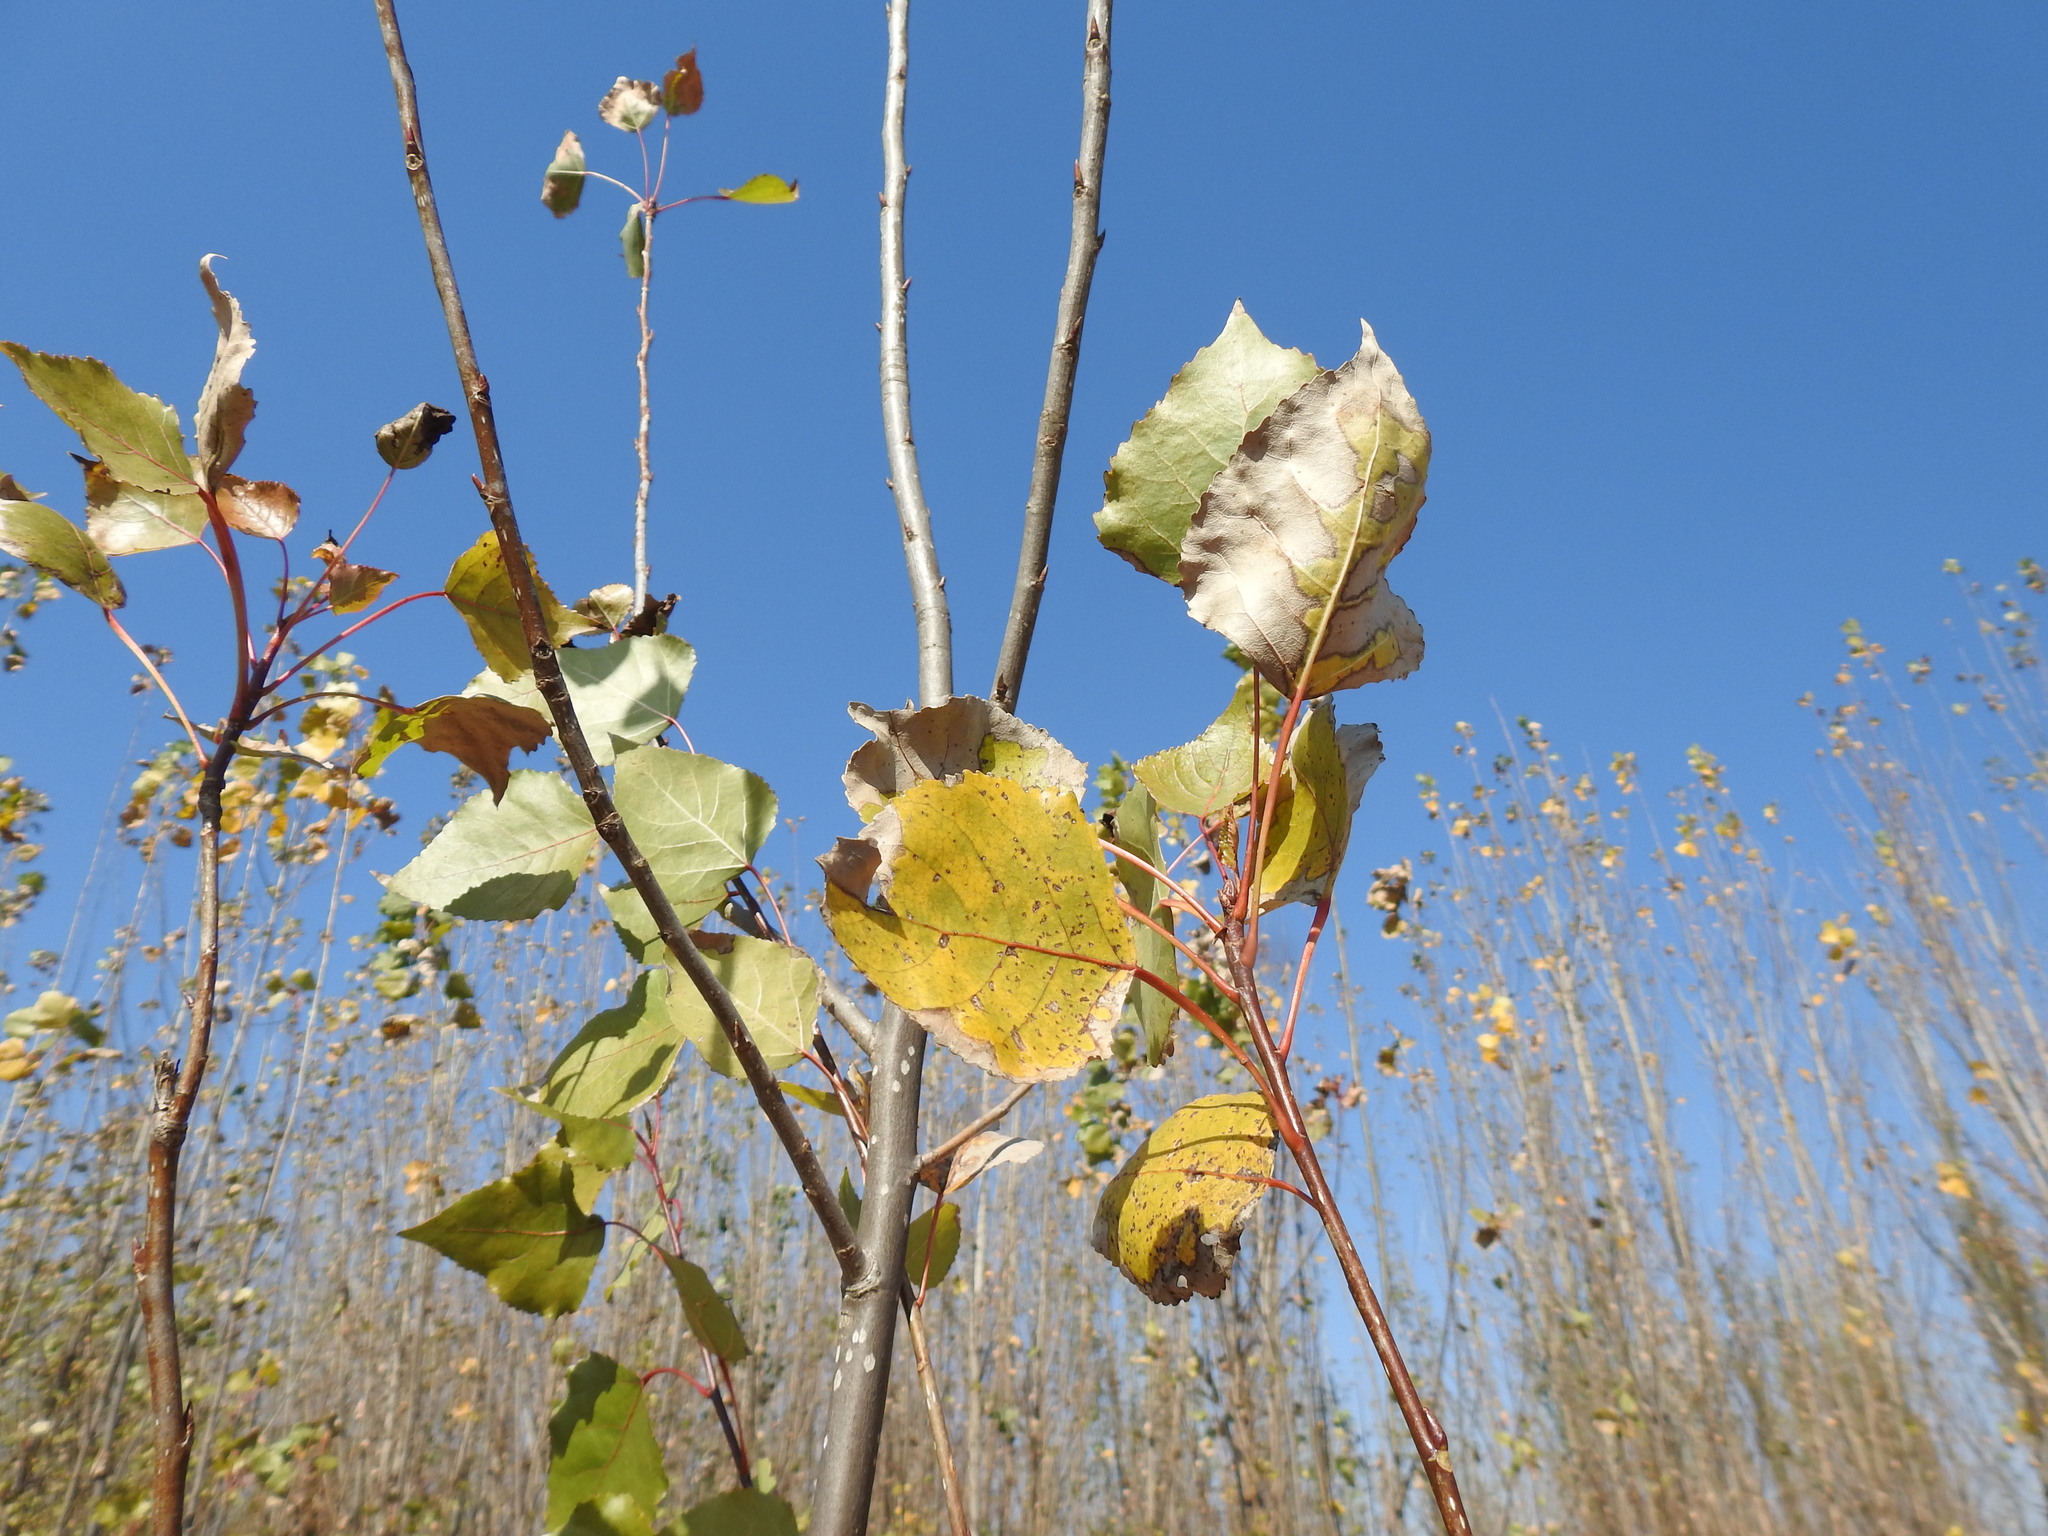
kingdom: Plantae
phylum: Tracheophyta
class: Magnoliopsida
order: Malpighiales
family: Salicaceae
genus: Populus
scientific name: Populus nigra
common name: Black poplar
